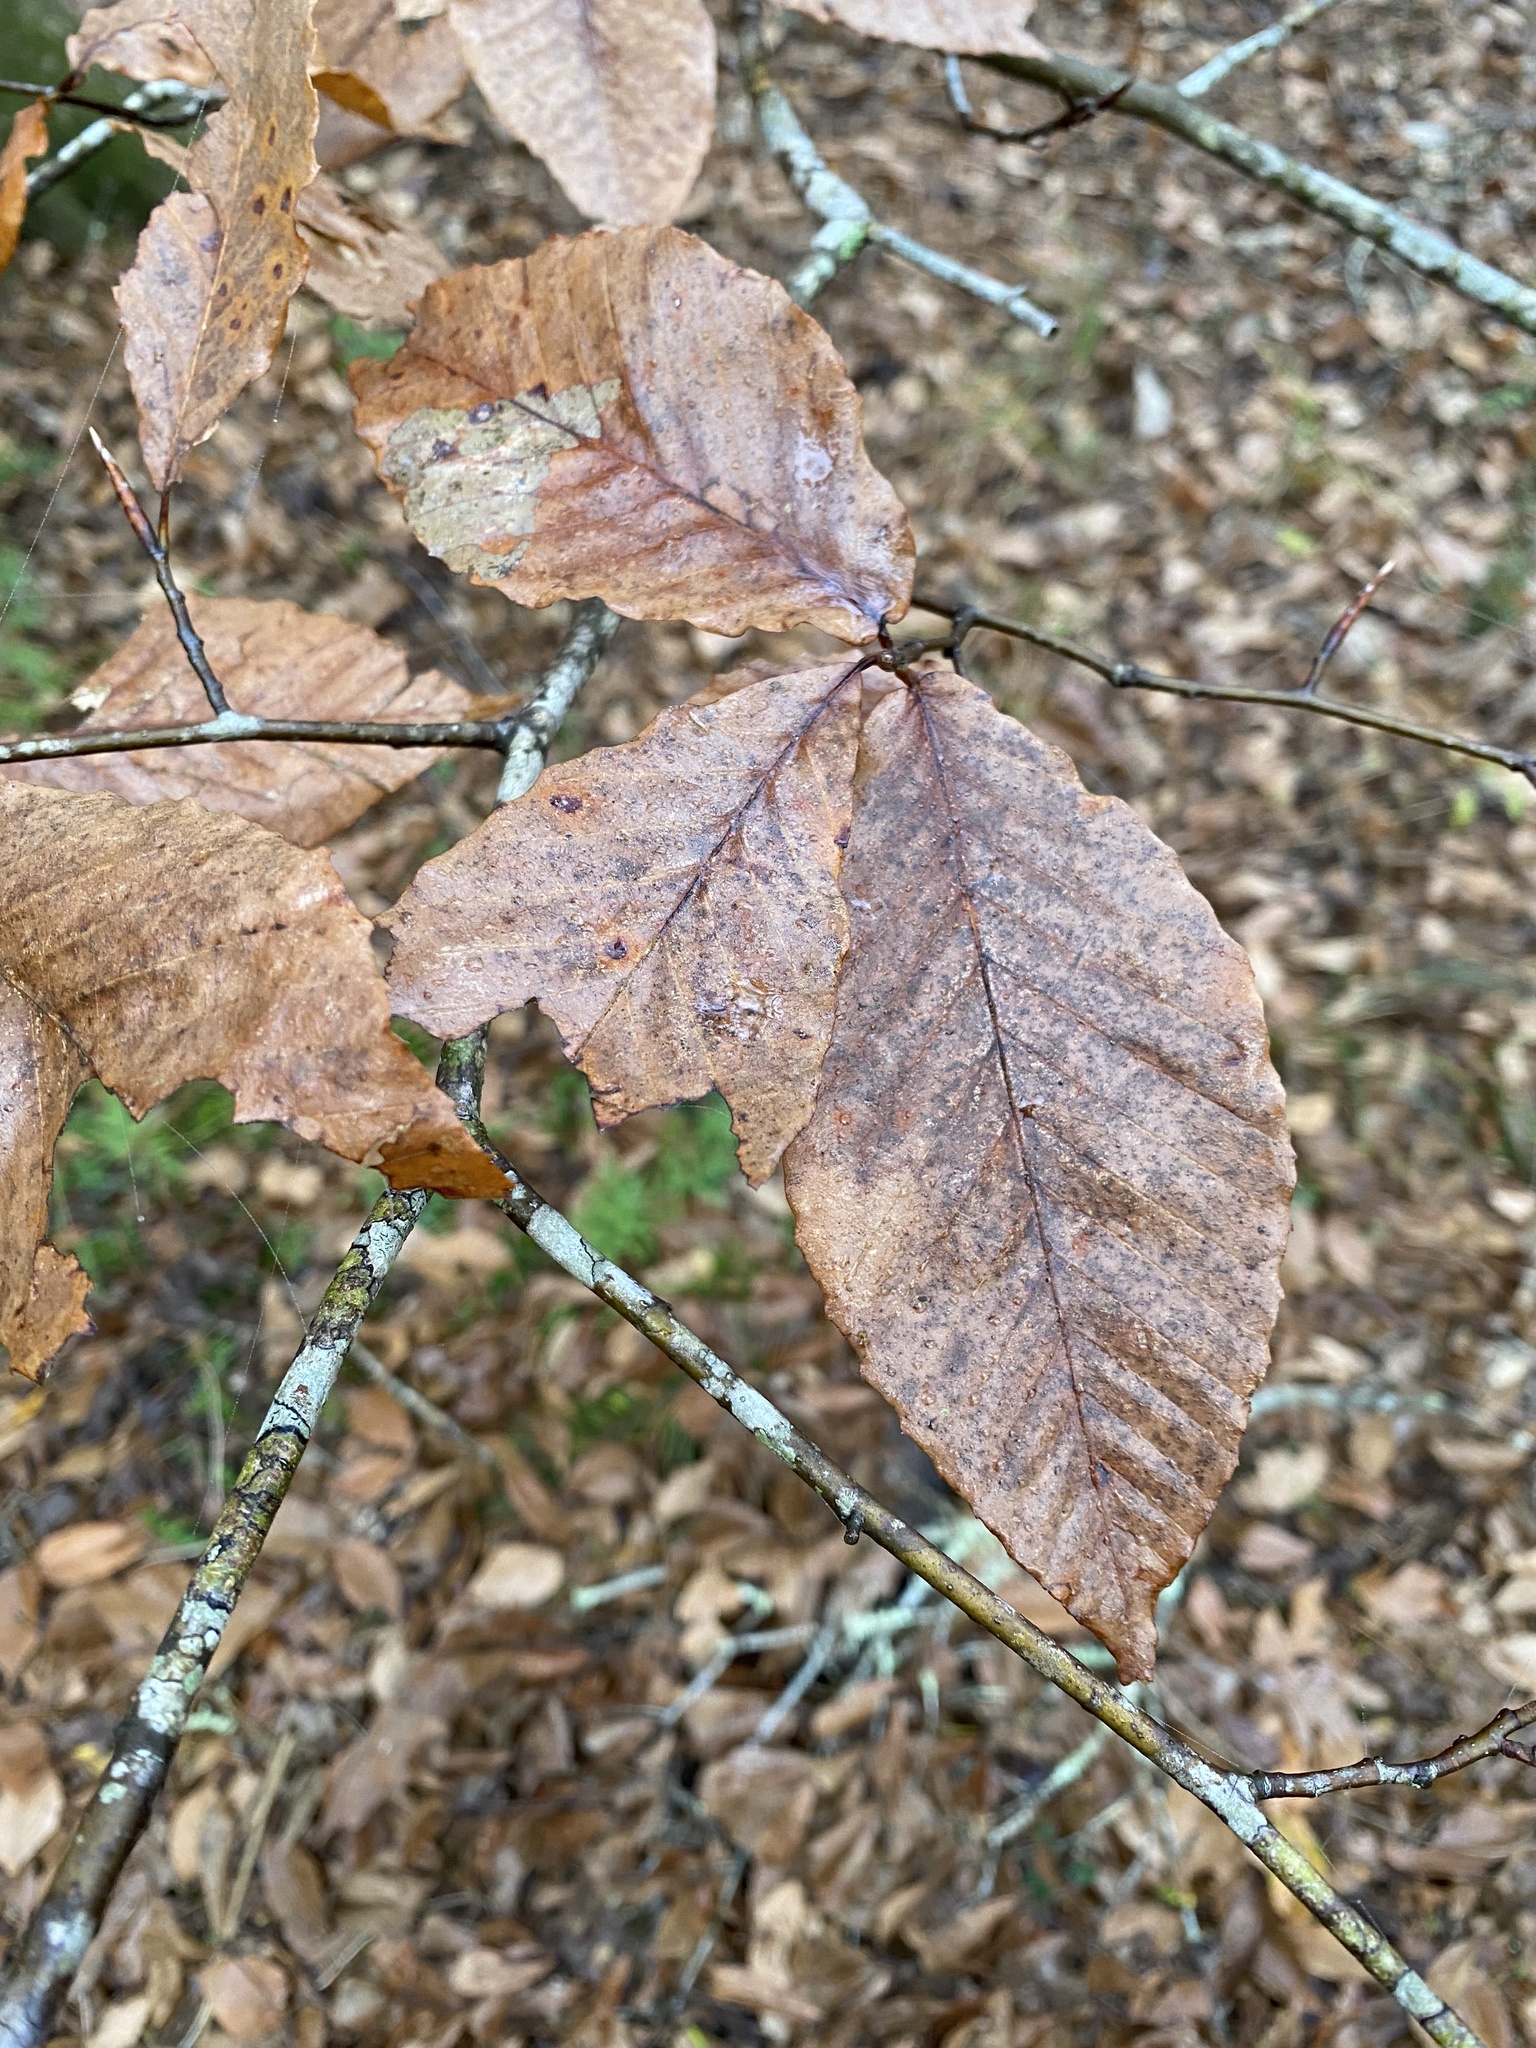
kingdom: Plantae
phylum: Tracheophyta
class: Magnoliopsida
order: Fagales
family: Fagaceae
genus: Fagus
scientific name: Fagus grandifolia
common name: American beech
